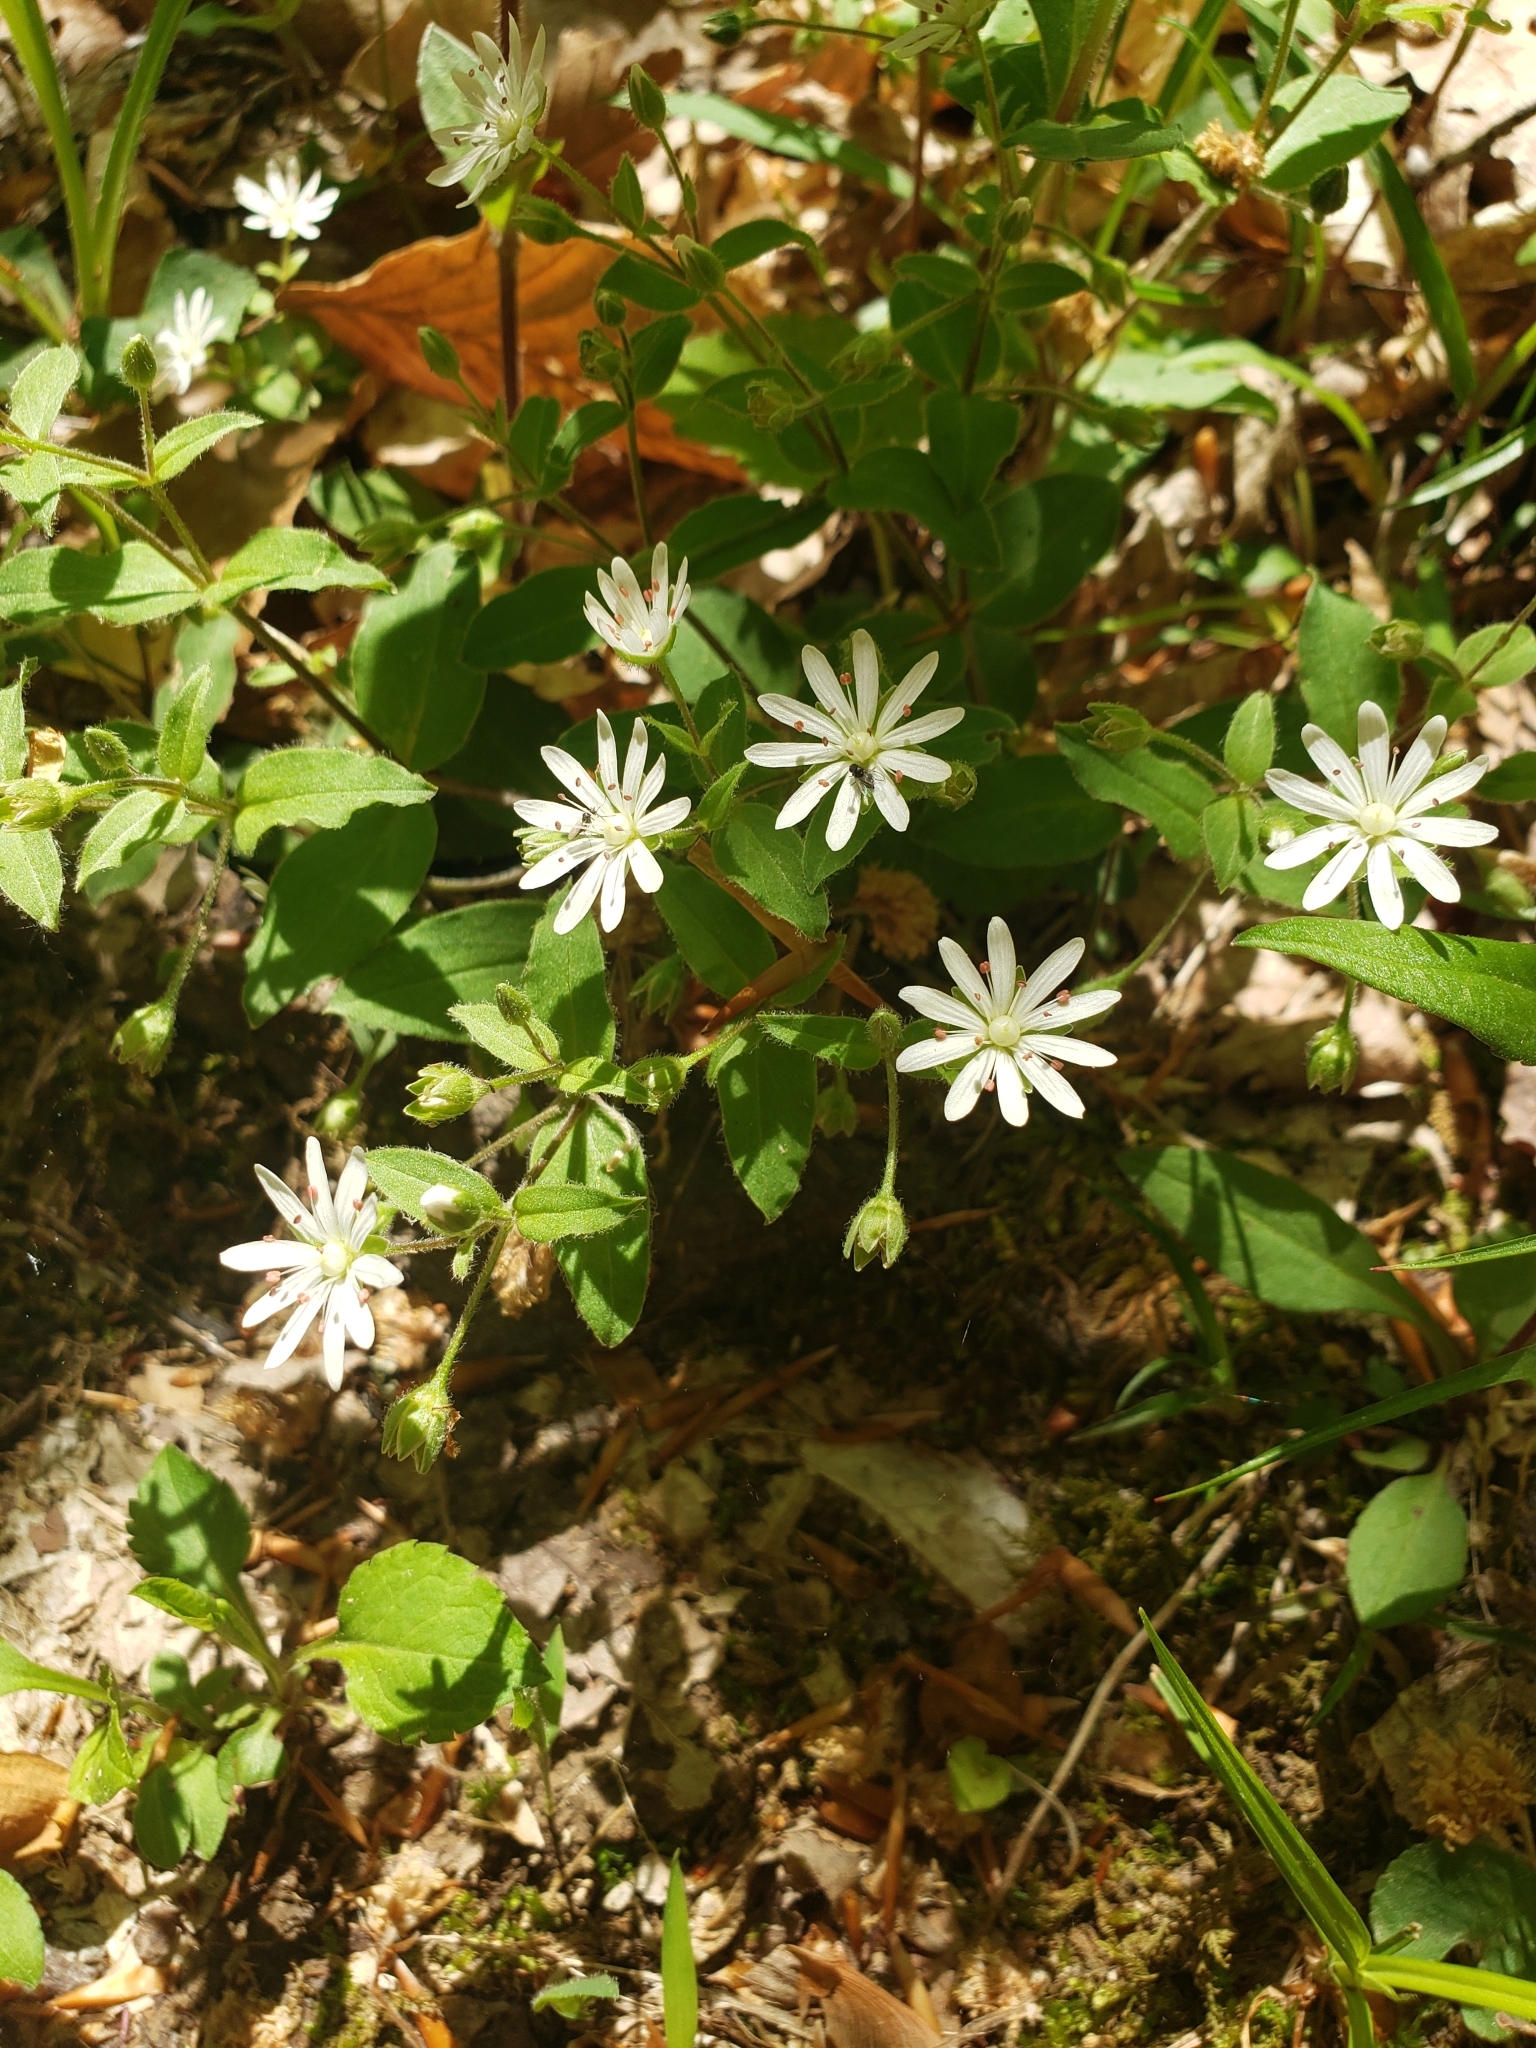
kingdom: Plantae
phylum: Tracheophyta
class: Magnoliopsida
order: Caryophyllales
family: Caryophyllaceae
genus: Stellaria
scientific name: Stellaria pubera
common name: Star chickweed
